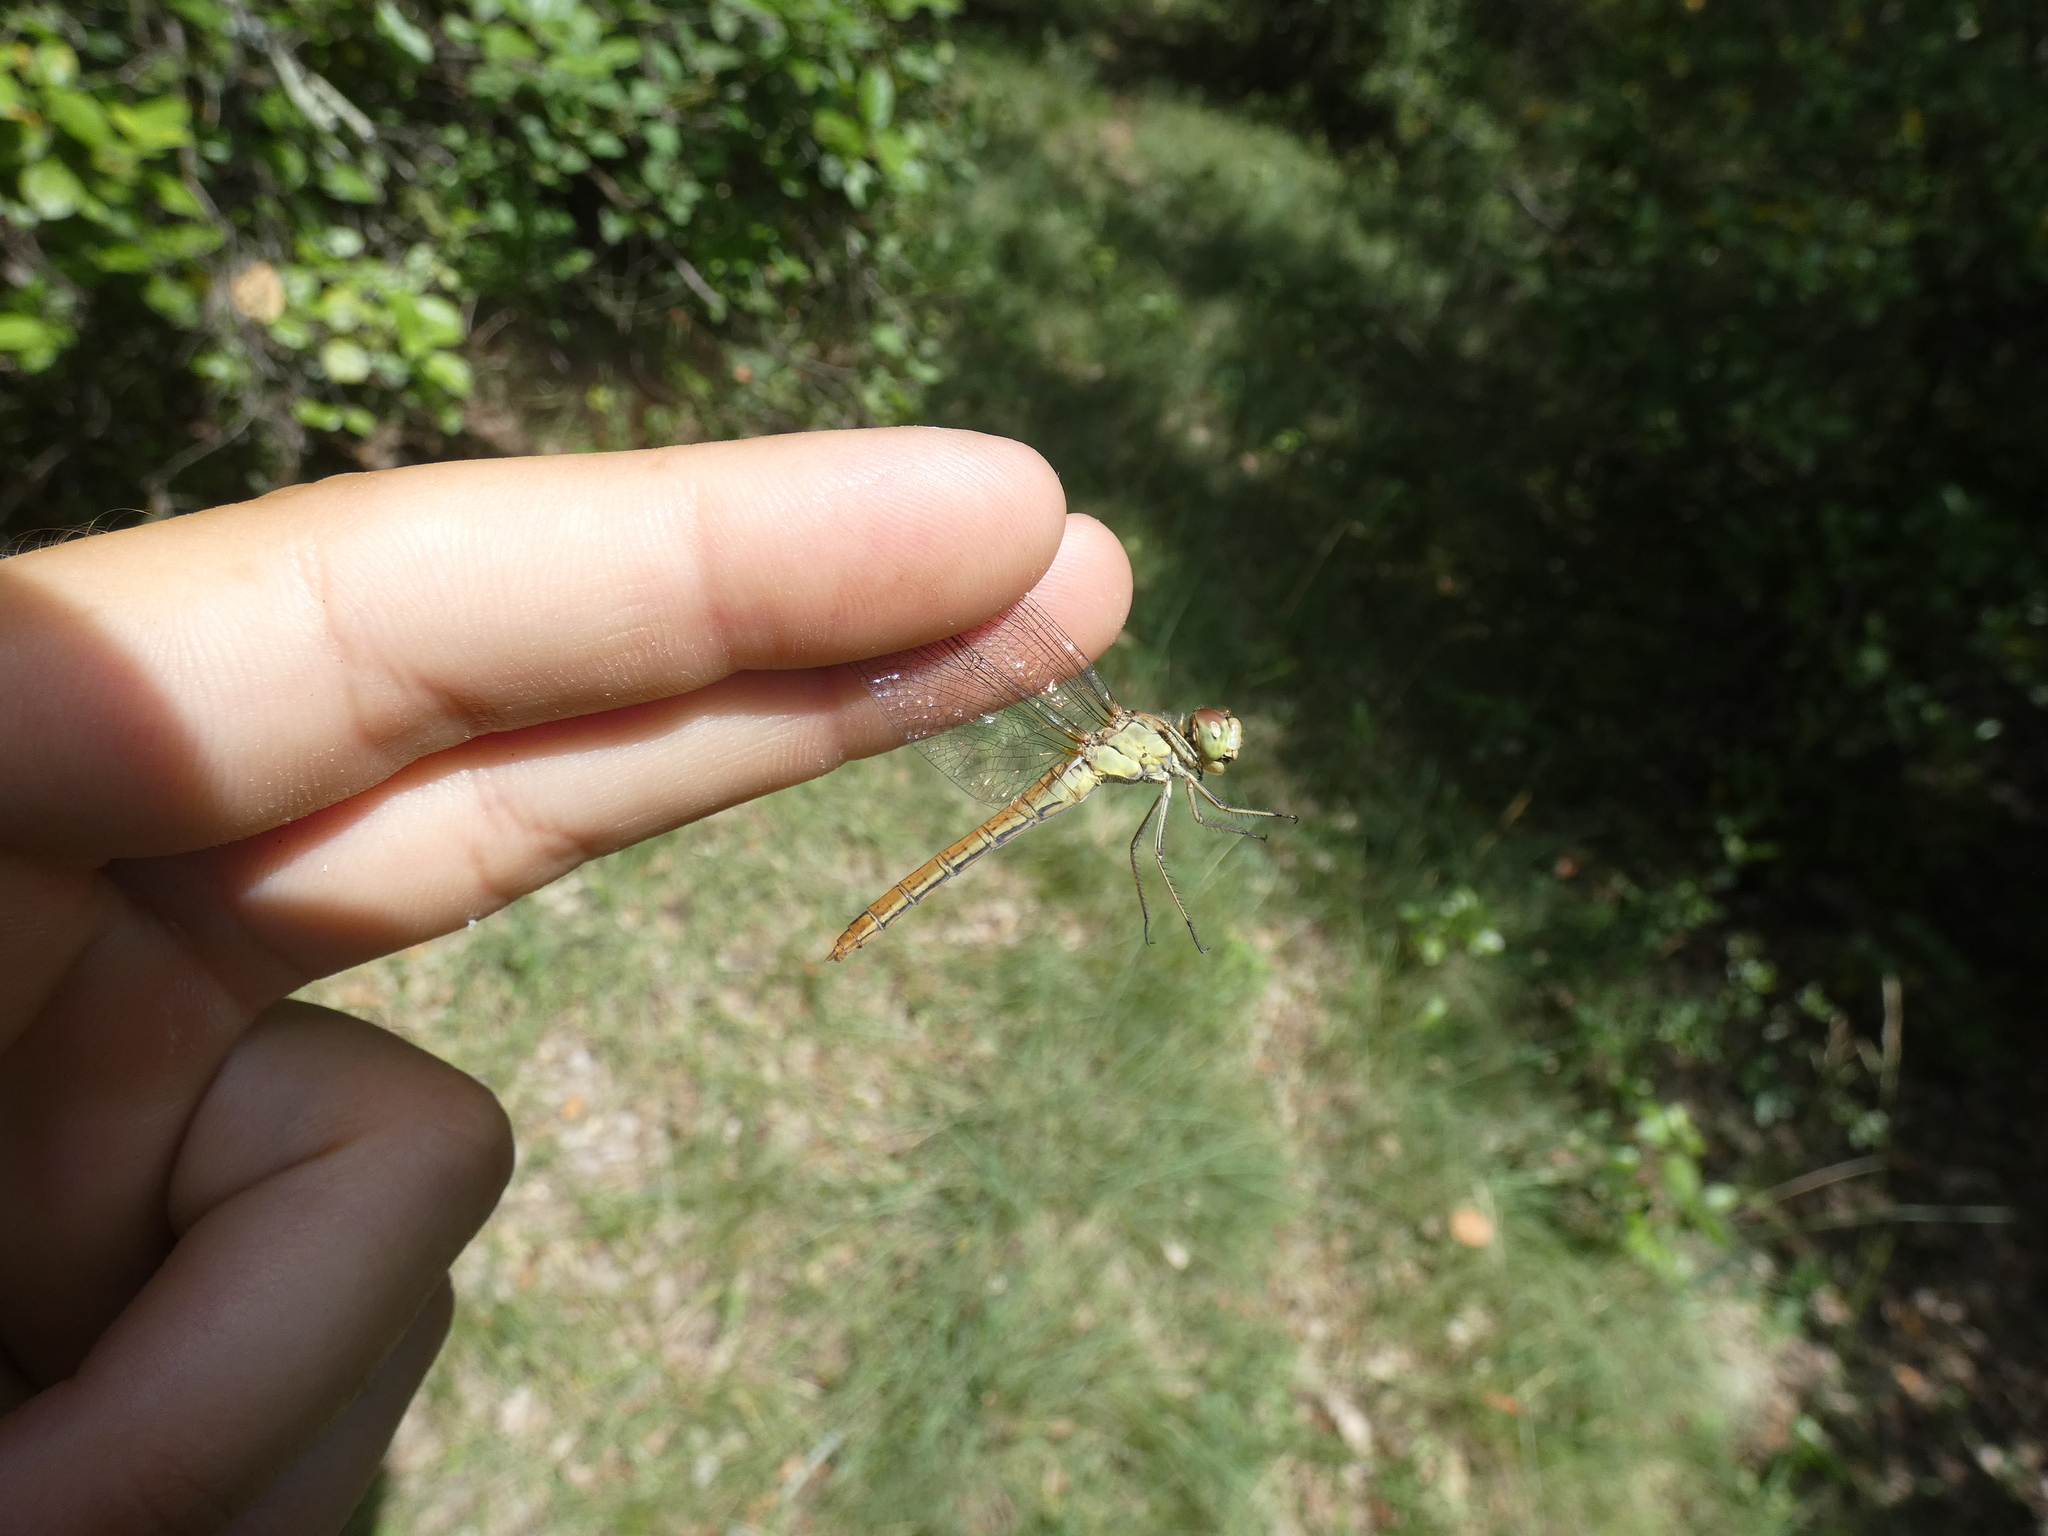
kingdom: Animalia
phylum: Arthropoda
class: Insecta
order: Odonata
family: Libellulidae
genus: Sympetrum
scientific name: Sympetrum meridionale
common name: Southern darter
